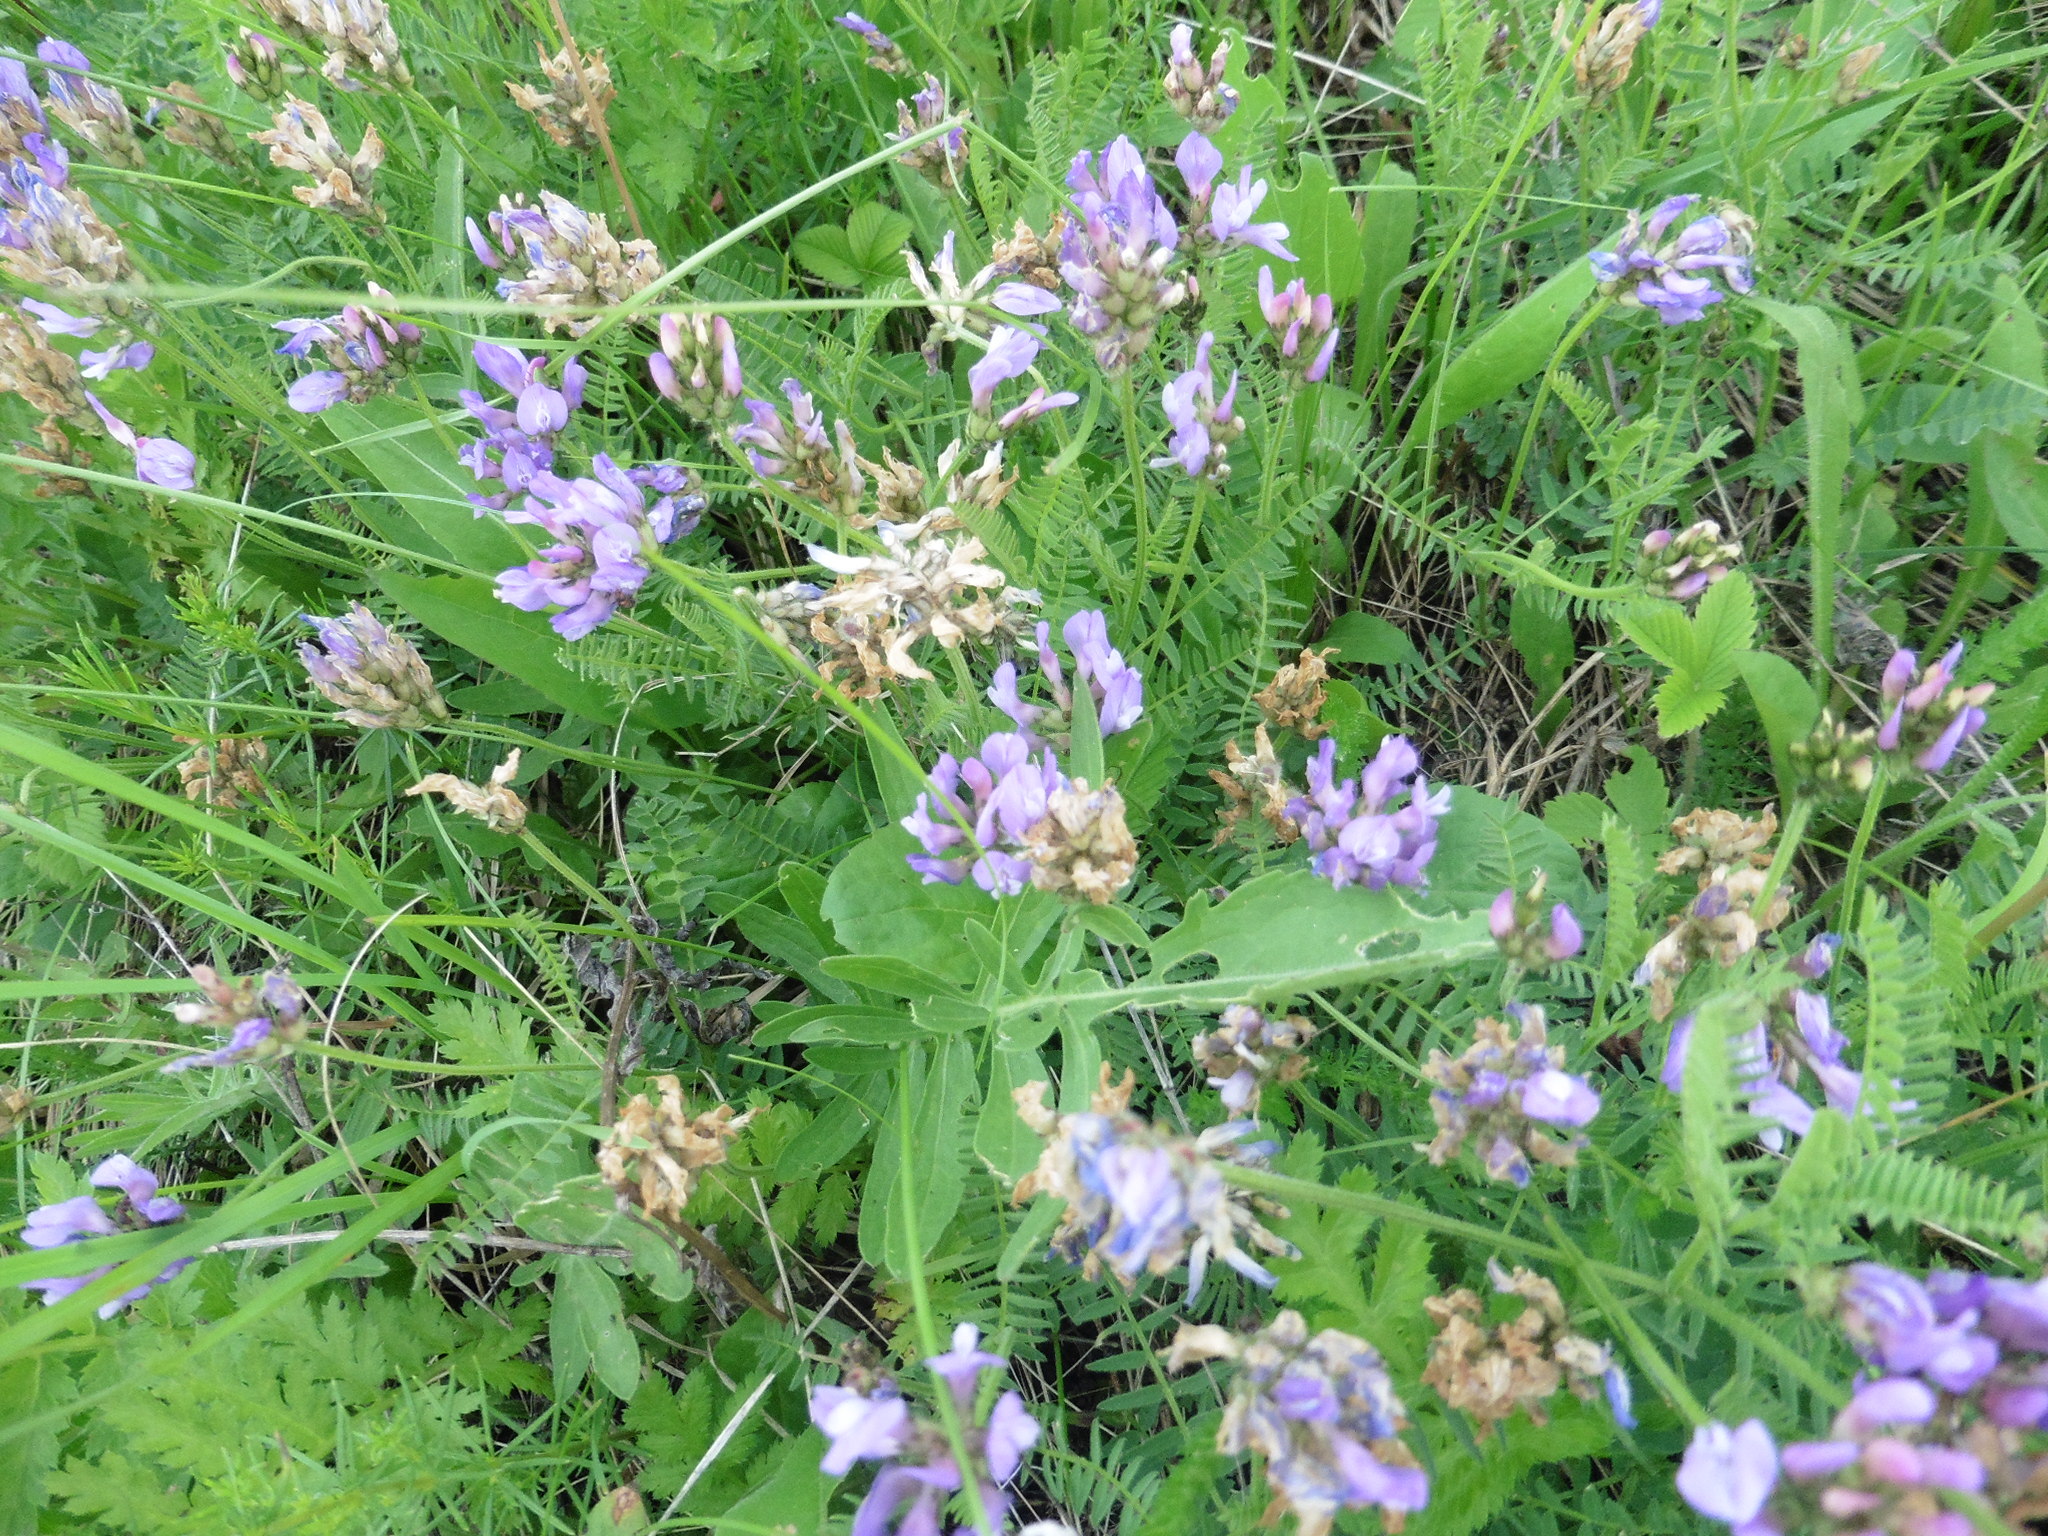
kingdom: Plantae
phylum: Tracheophyta
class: Magnoliopsida
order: Fabales
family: Fabaceae
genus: Astragalus
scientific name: Astragalus danicus
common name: Purple milk-vetch
